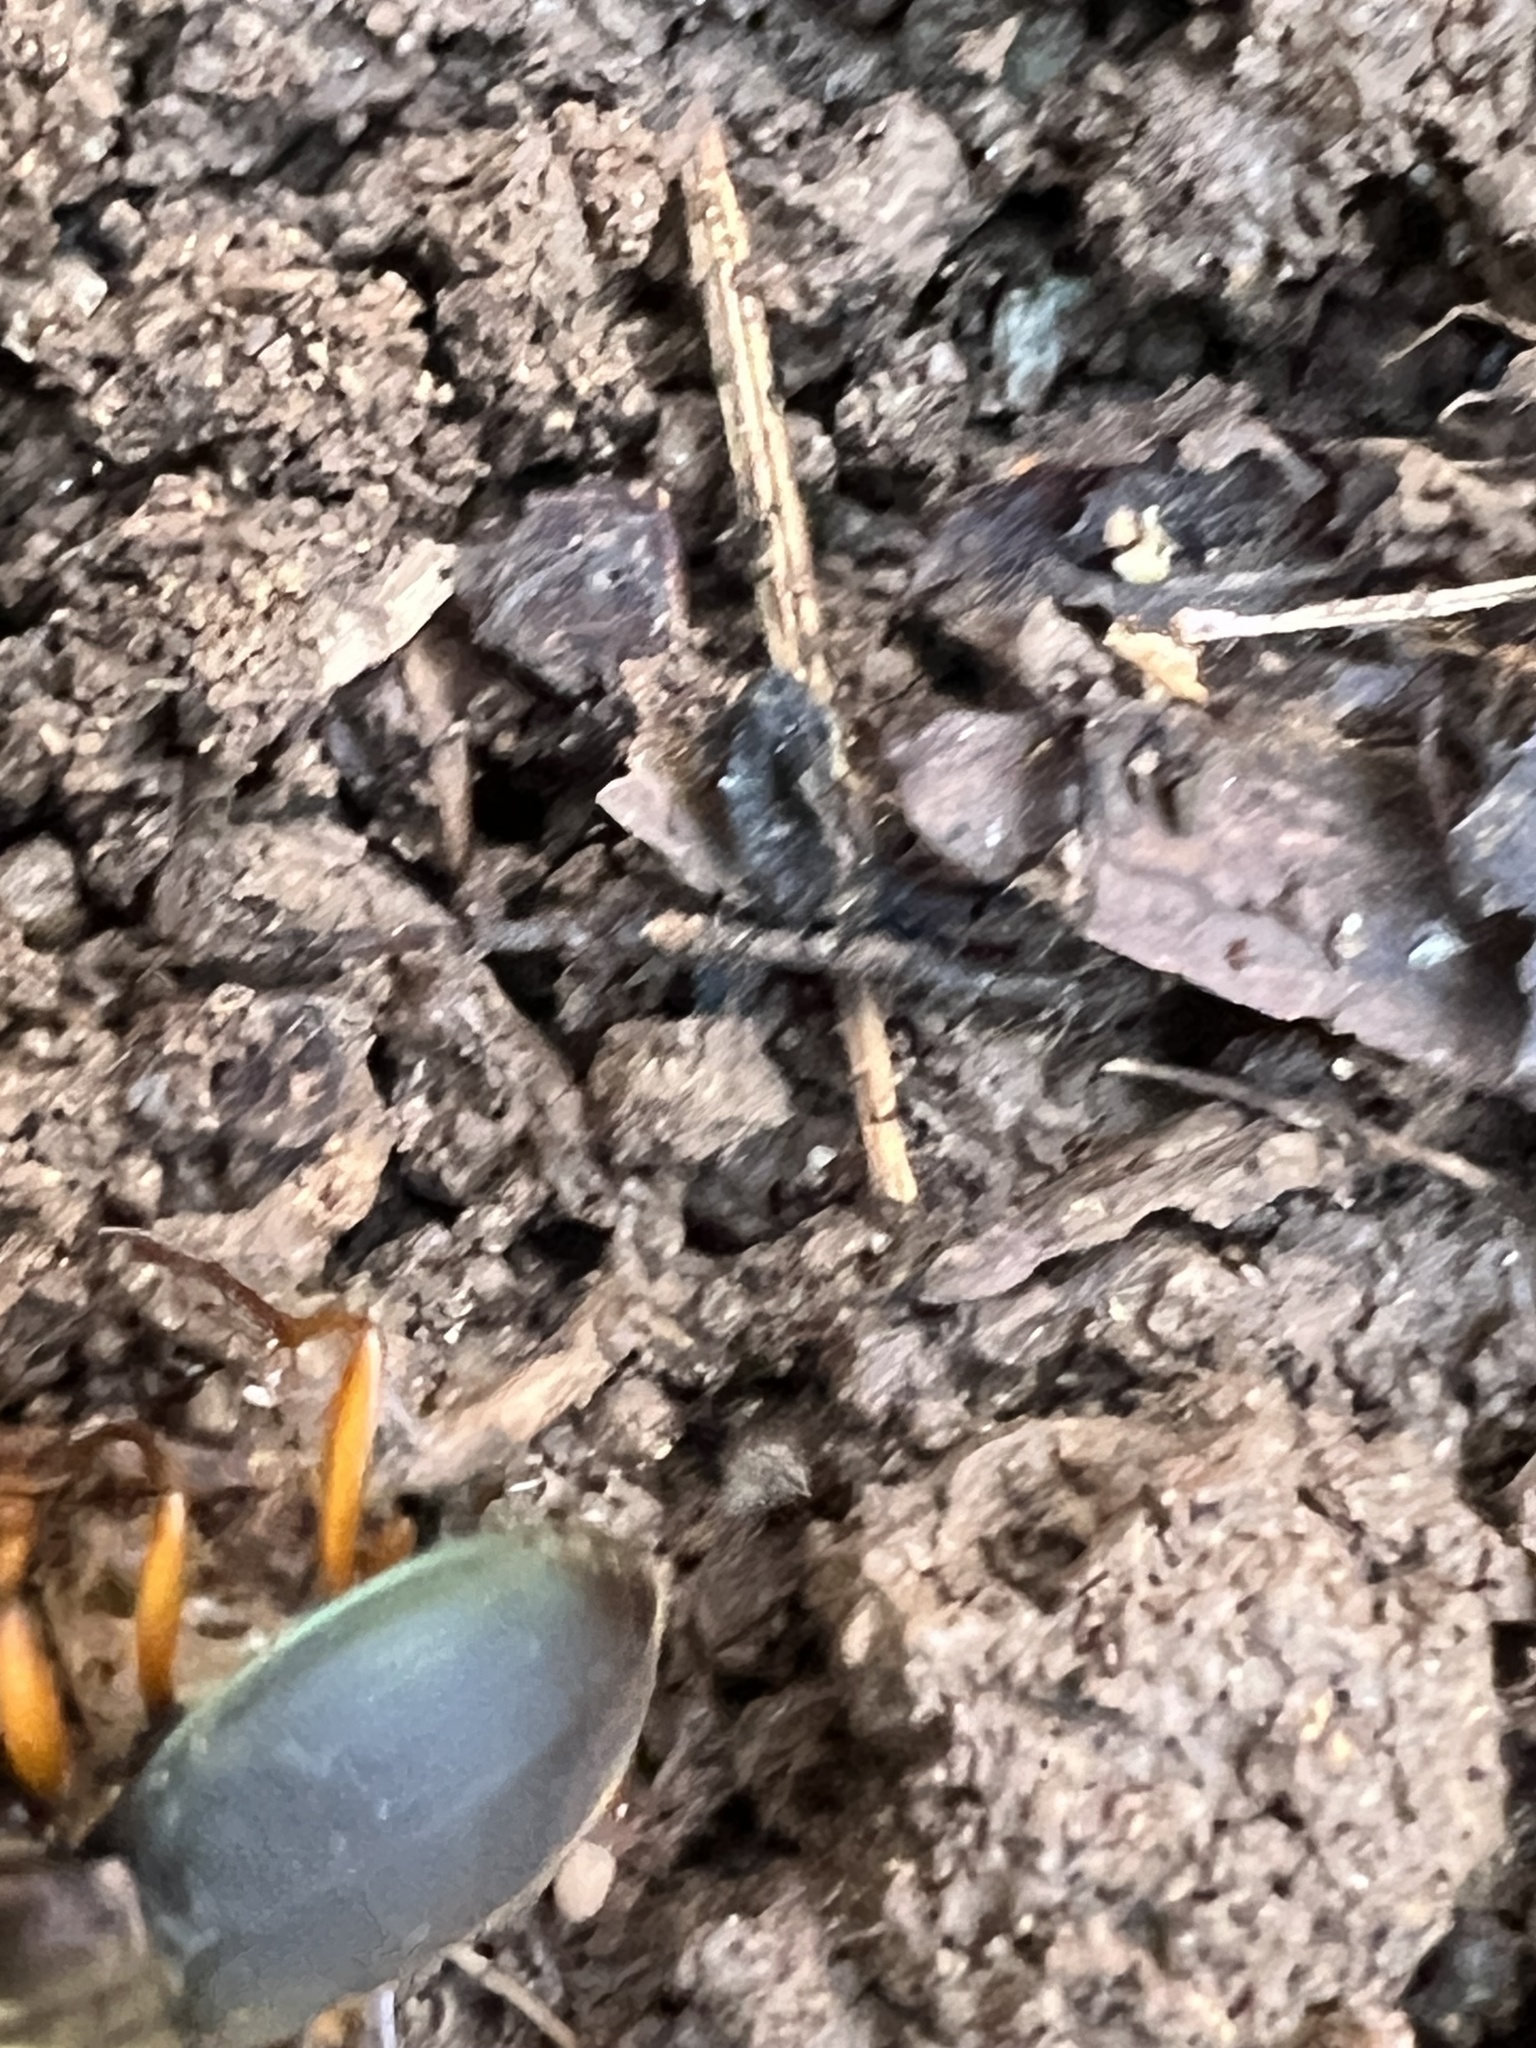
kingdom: Animalia
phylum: Arthropoda
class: Insecta
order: Coleoptera
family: Carabidae
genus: Chlaenius
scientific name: Chlaenius aestivus
